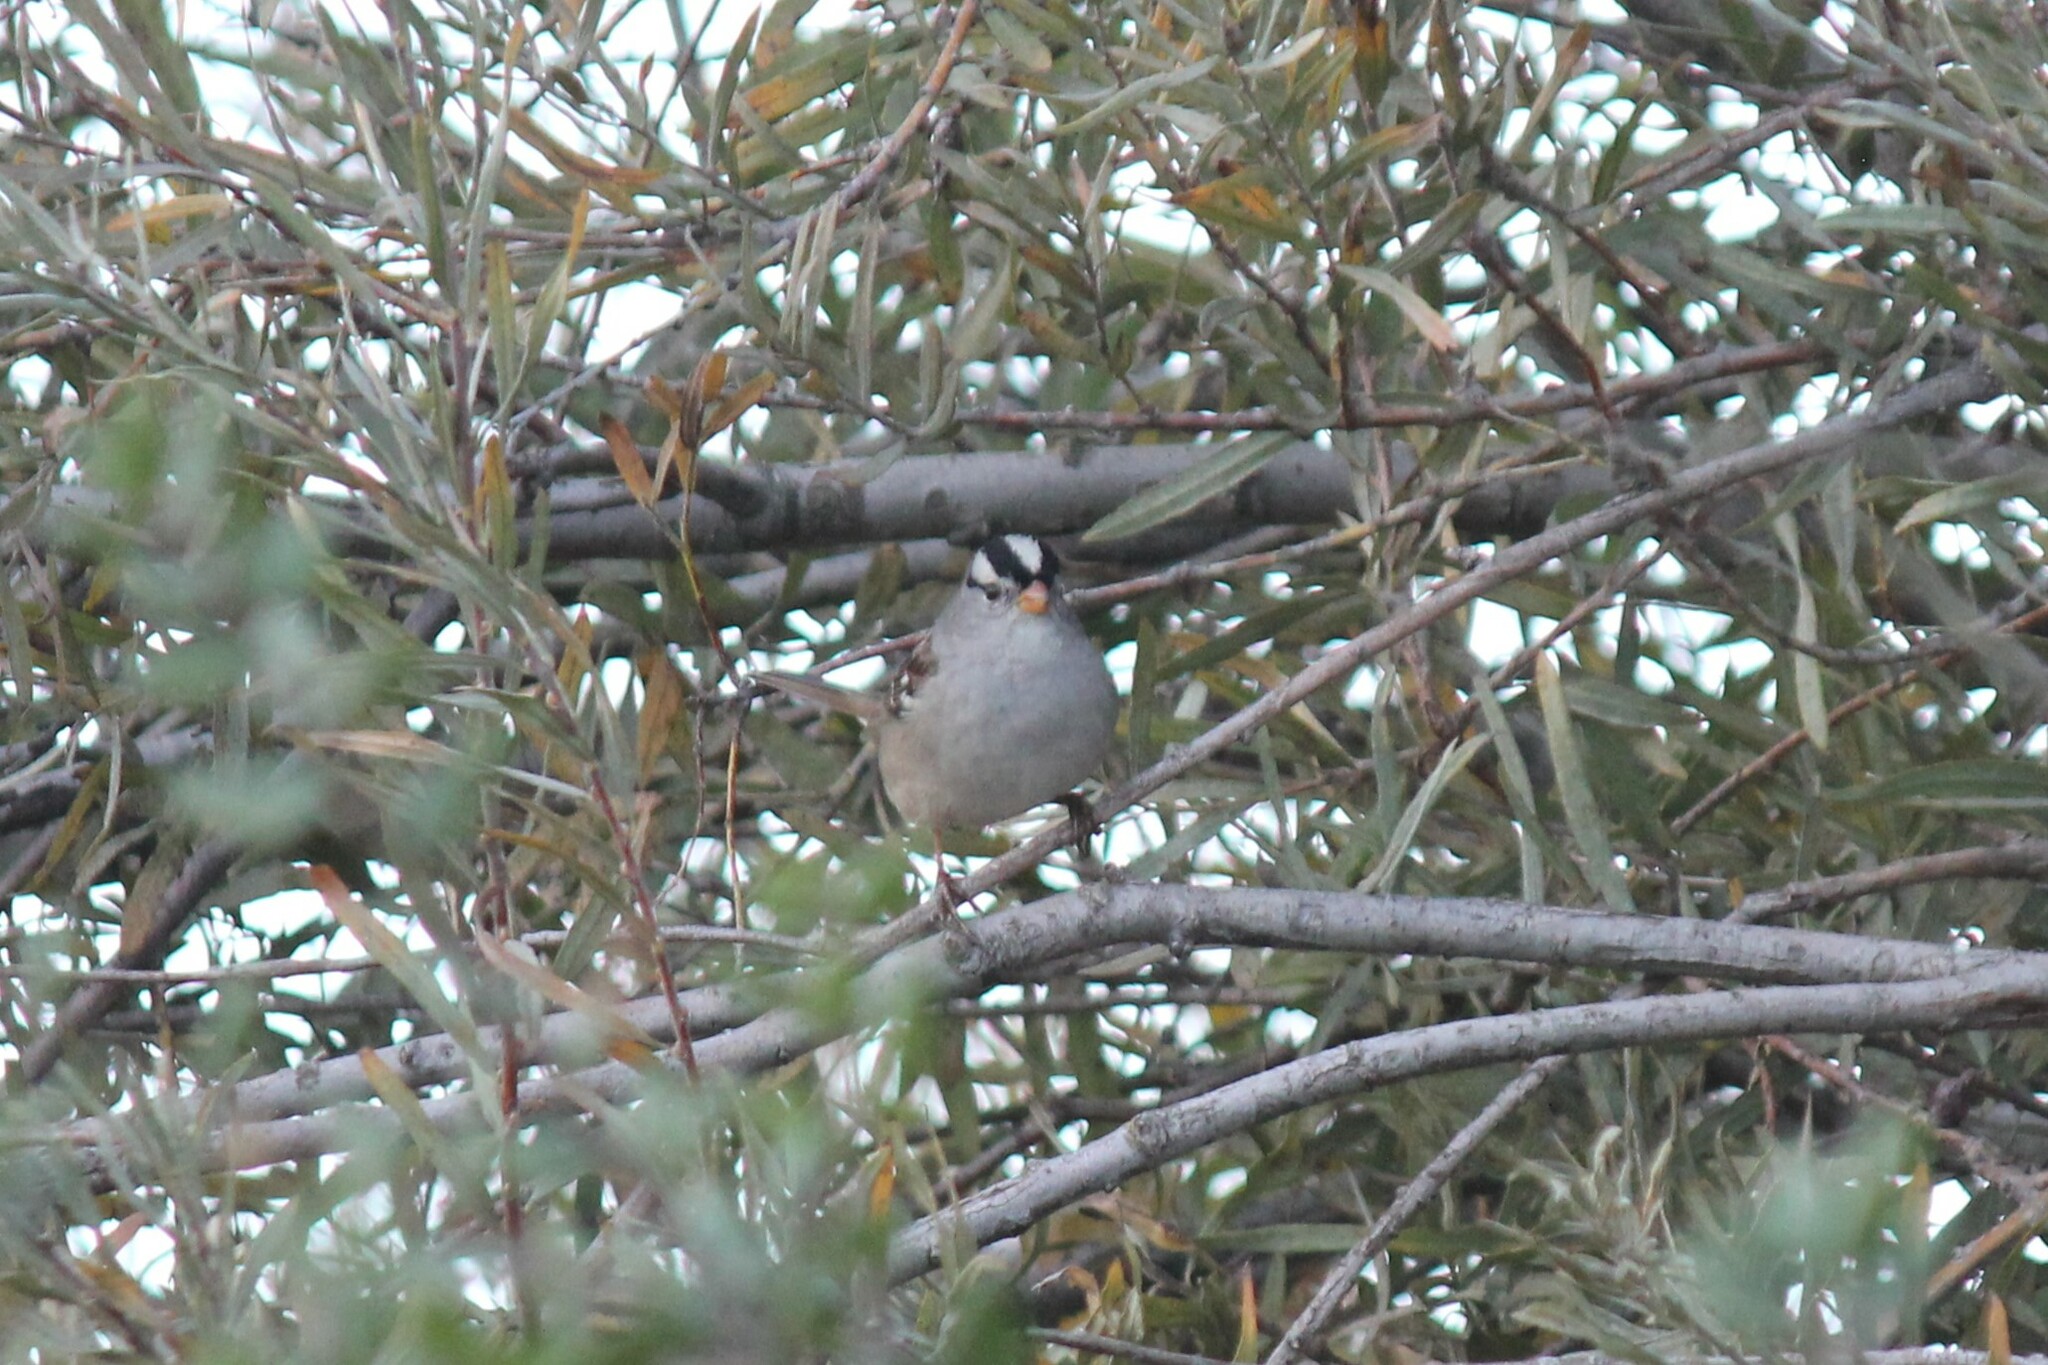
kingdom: Animalia
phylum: Chordata
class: Aves
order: Passeriformes
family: Passerellidae
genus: Zonotrichia
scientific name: Zonotrichia leucophrys
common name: White-crowned sparrow
